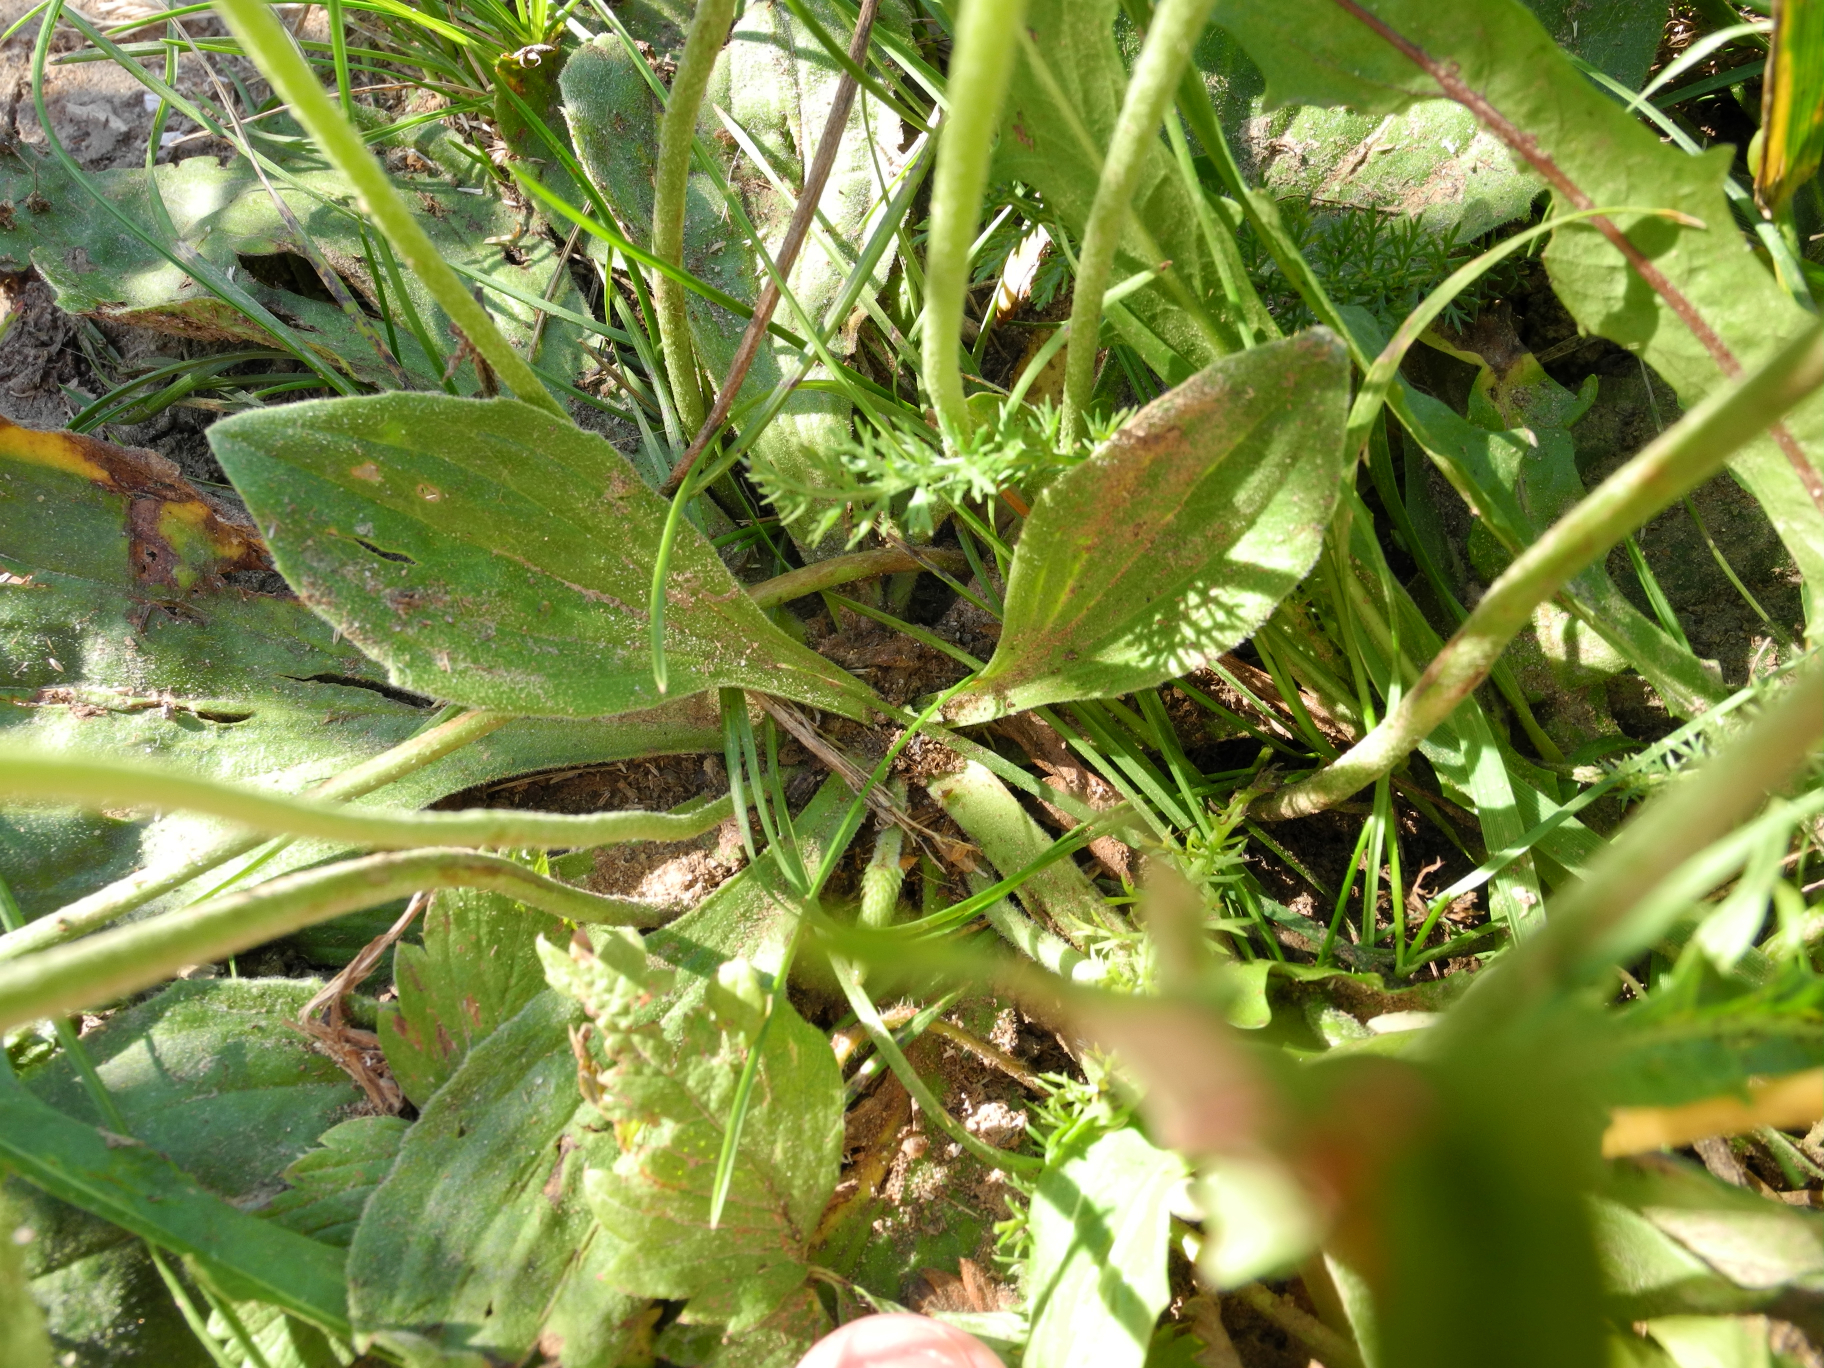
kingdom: Plantae
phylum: Tracheophyta
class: Magnoliopsida
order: Lamiales
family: Plantaginaceae
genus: Plantago
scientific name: Plantago media
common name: Hoary plantain
